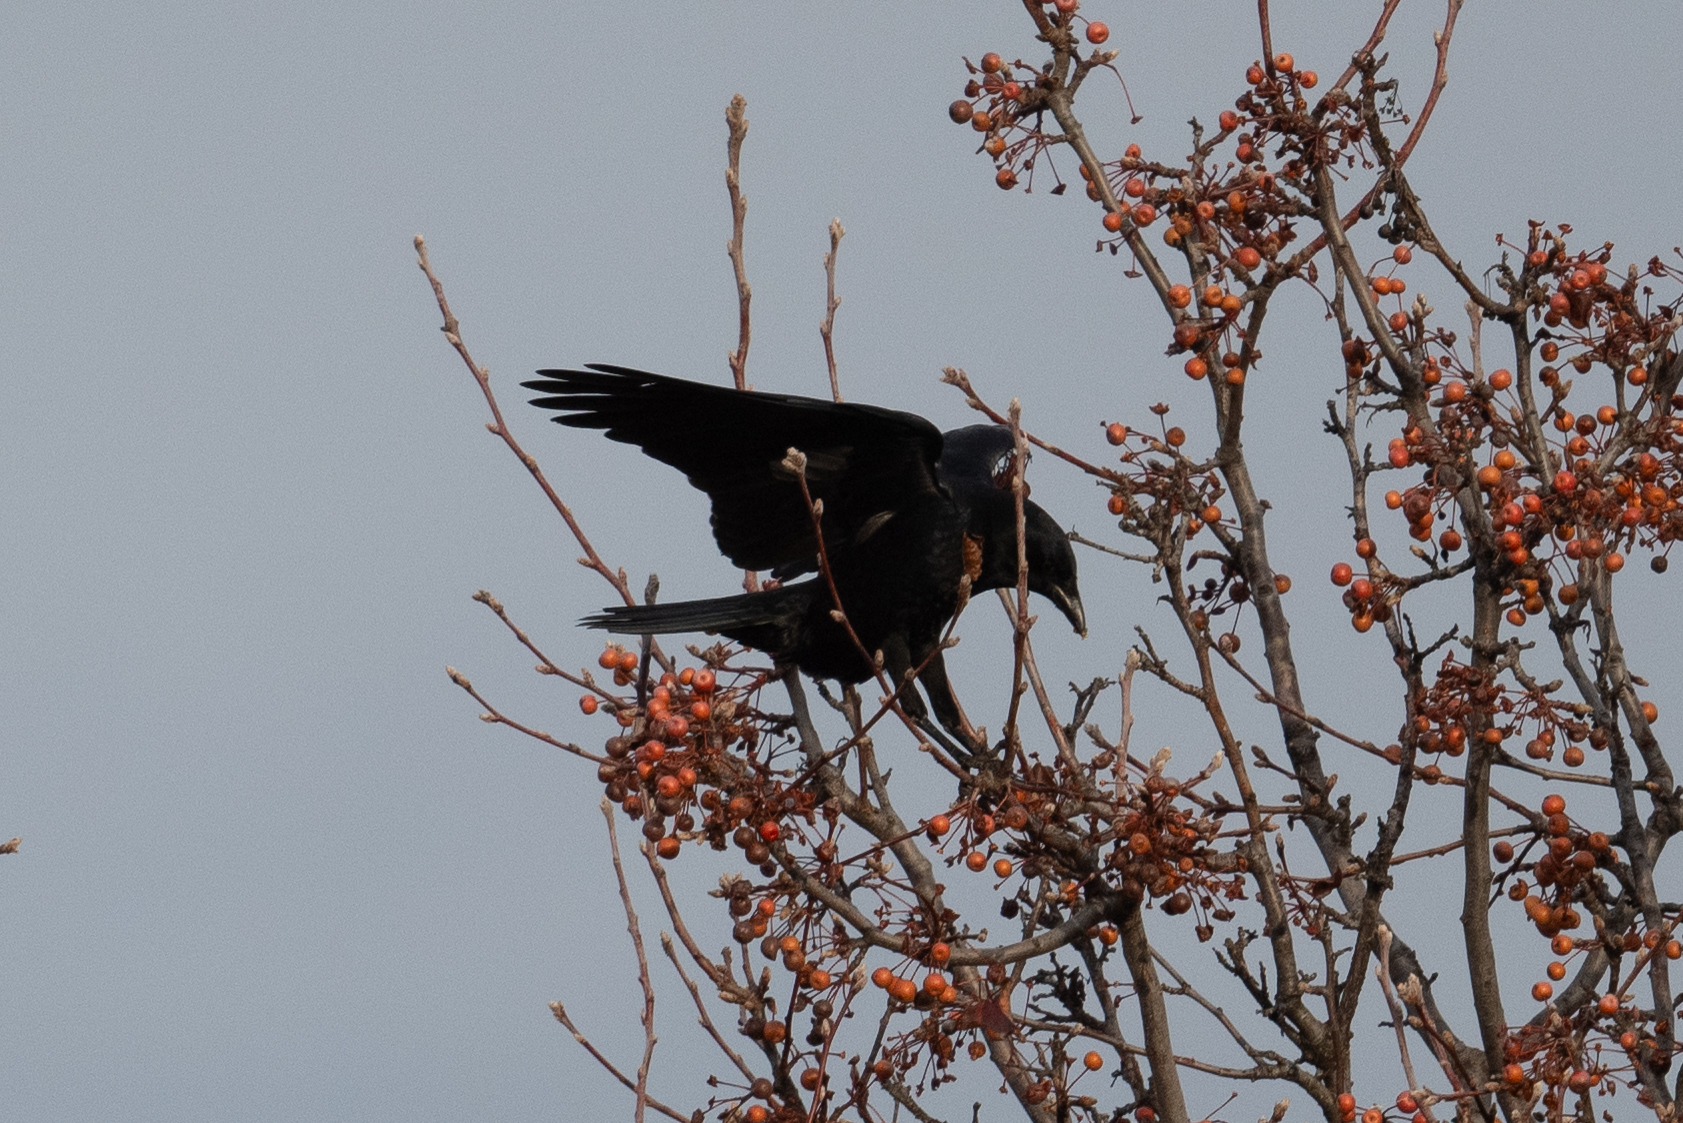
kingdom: Animalia
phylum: Chordata
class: Aves
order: Passeriformes
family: Corvidae
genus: Corvus
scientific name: Corvus corax
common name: Common raven
